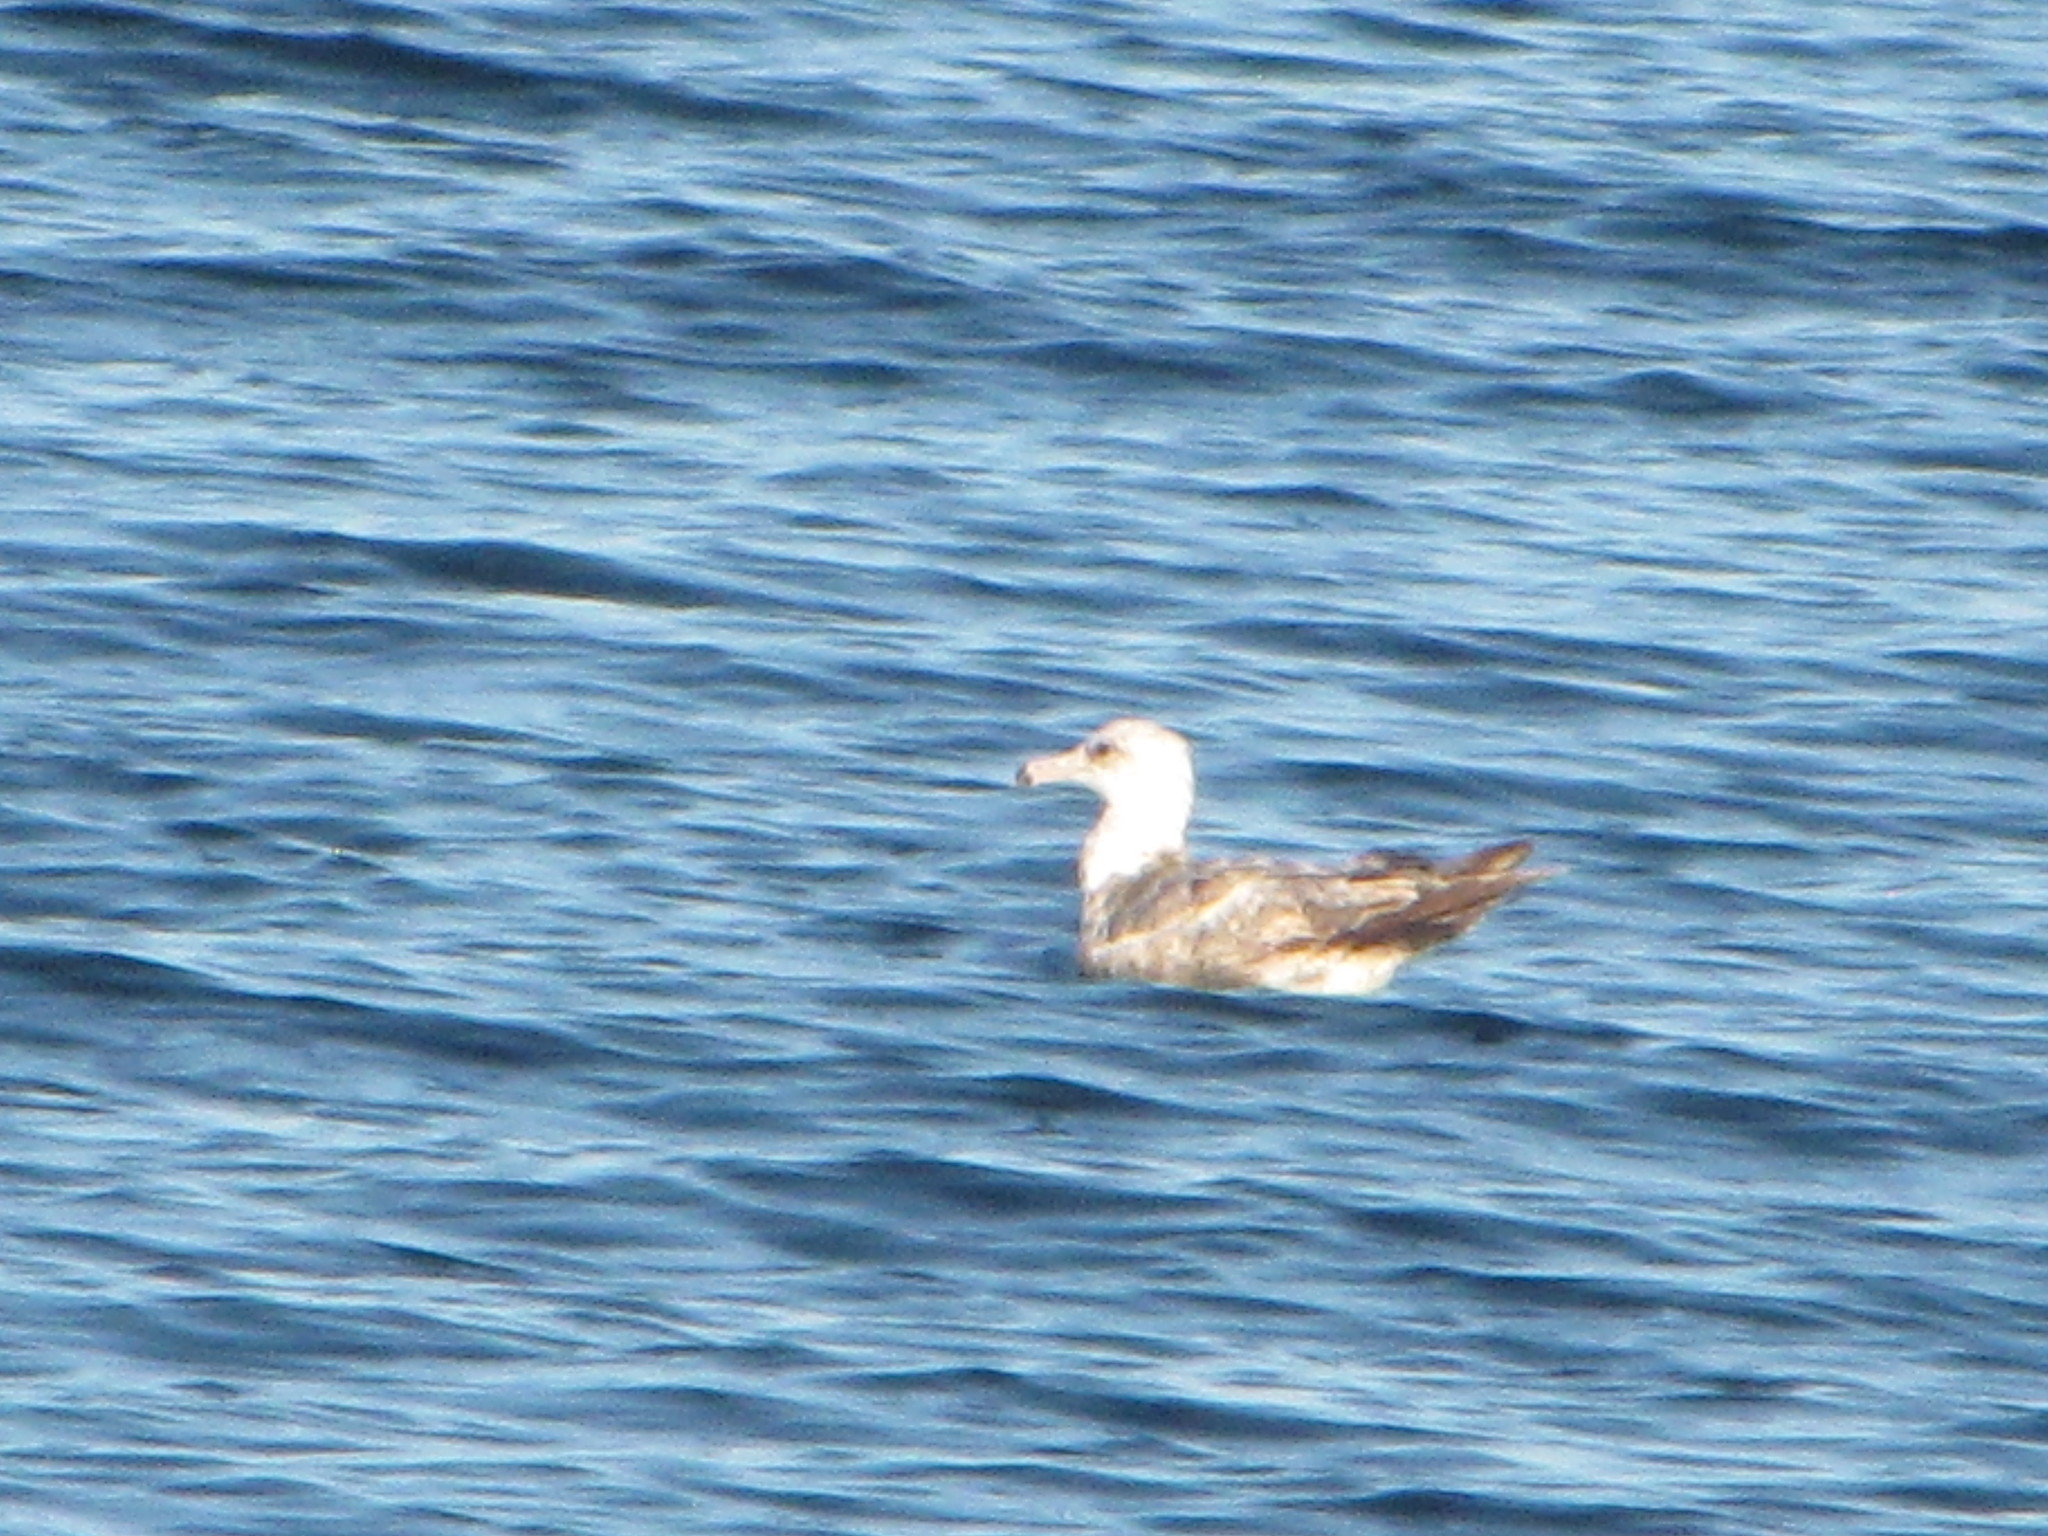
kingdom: Animalia
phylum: Chordata
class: Aves
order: Charadriiformes
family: Laridae
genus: Larus
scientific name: Larus californicus
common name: California gull
